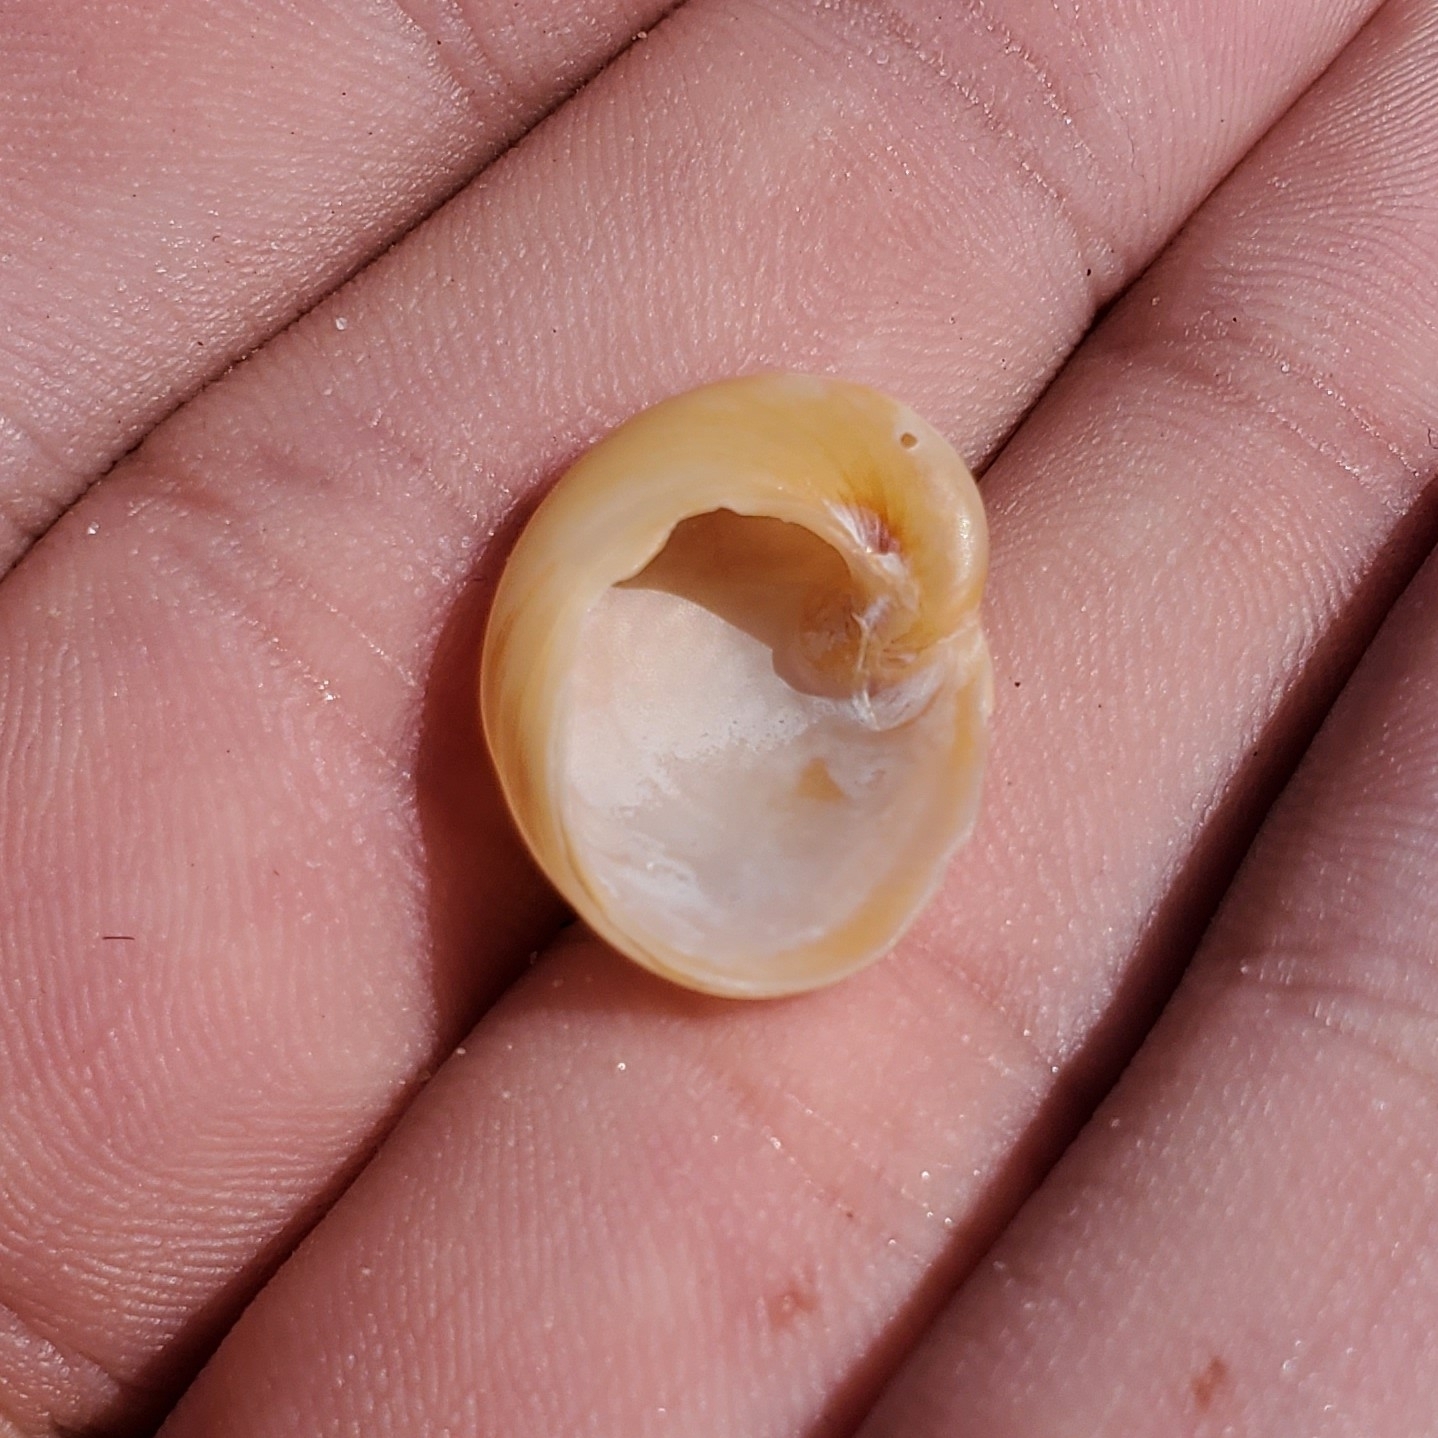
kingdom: Animalia
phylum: Mollusca
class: Gastropoda
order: Littorinimorpha
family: Naticidae
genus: Sinum
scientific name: Sinum perspectivum
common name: White baby ear
